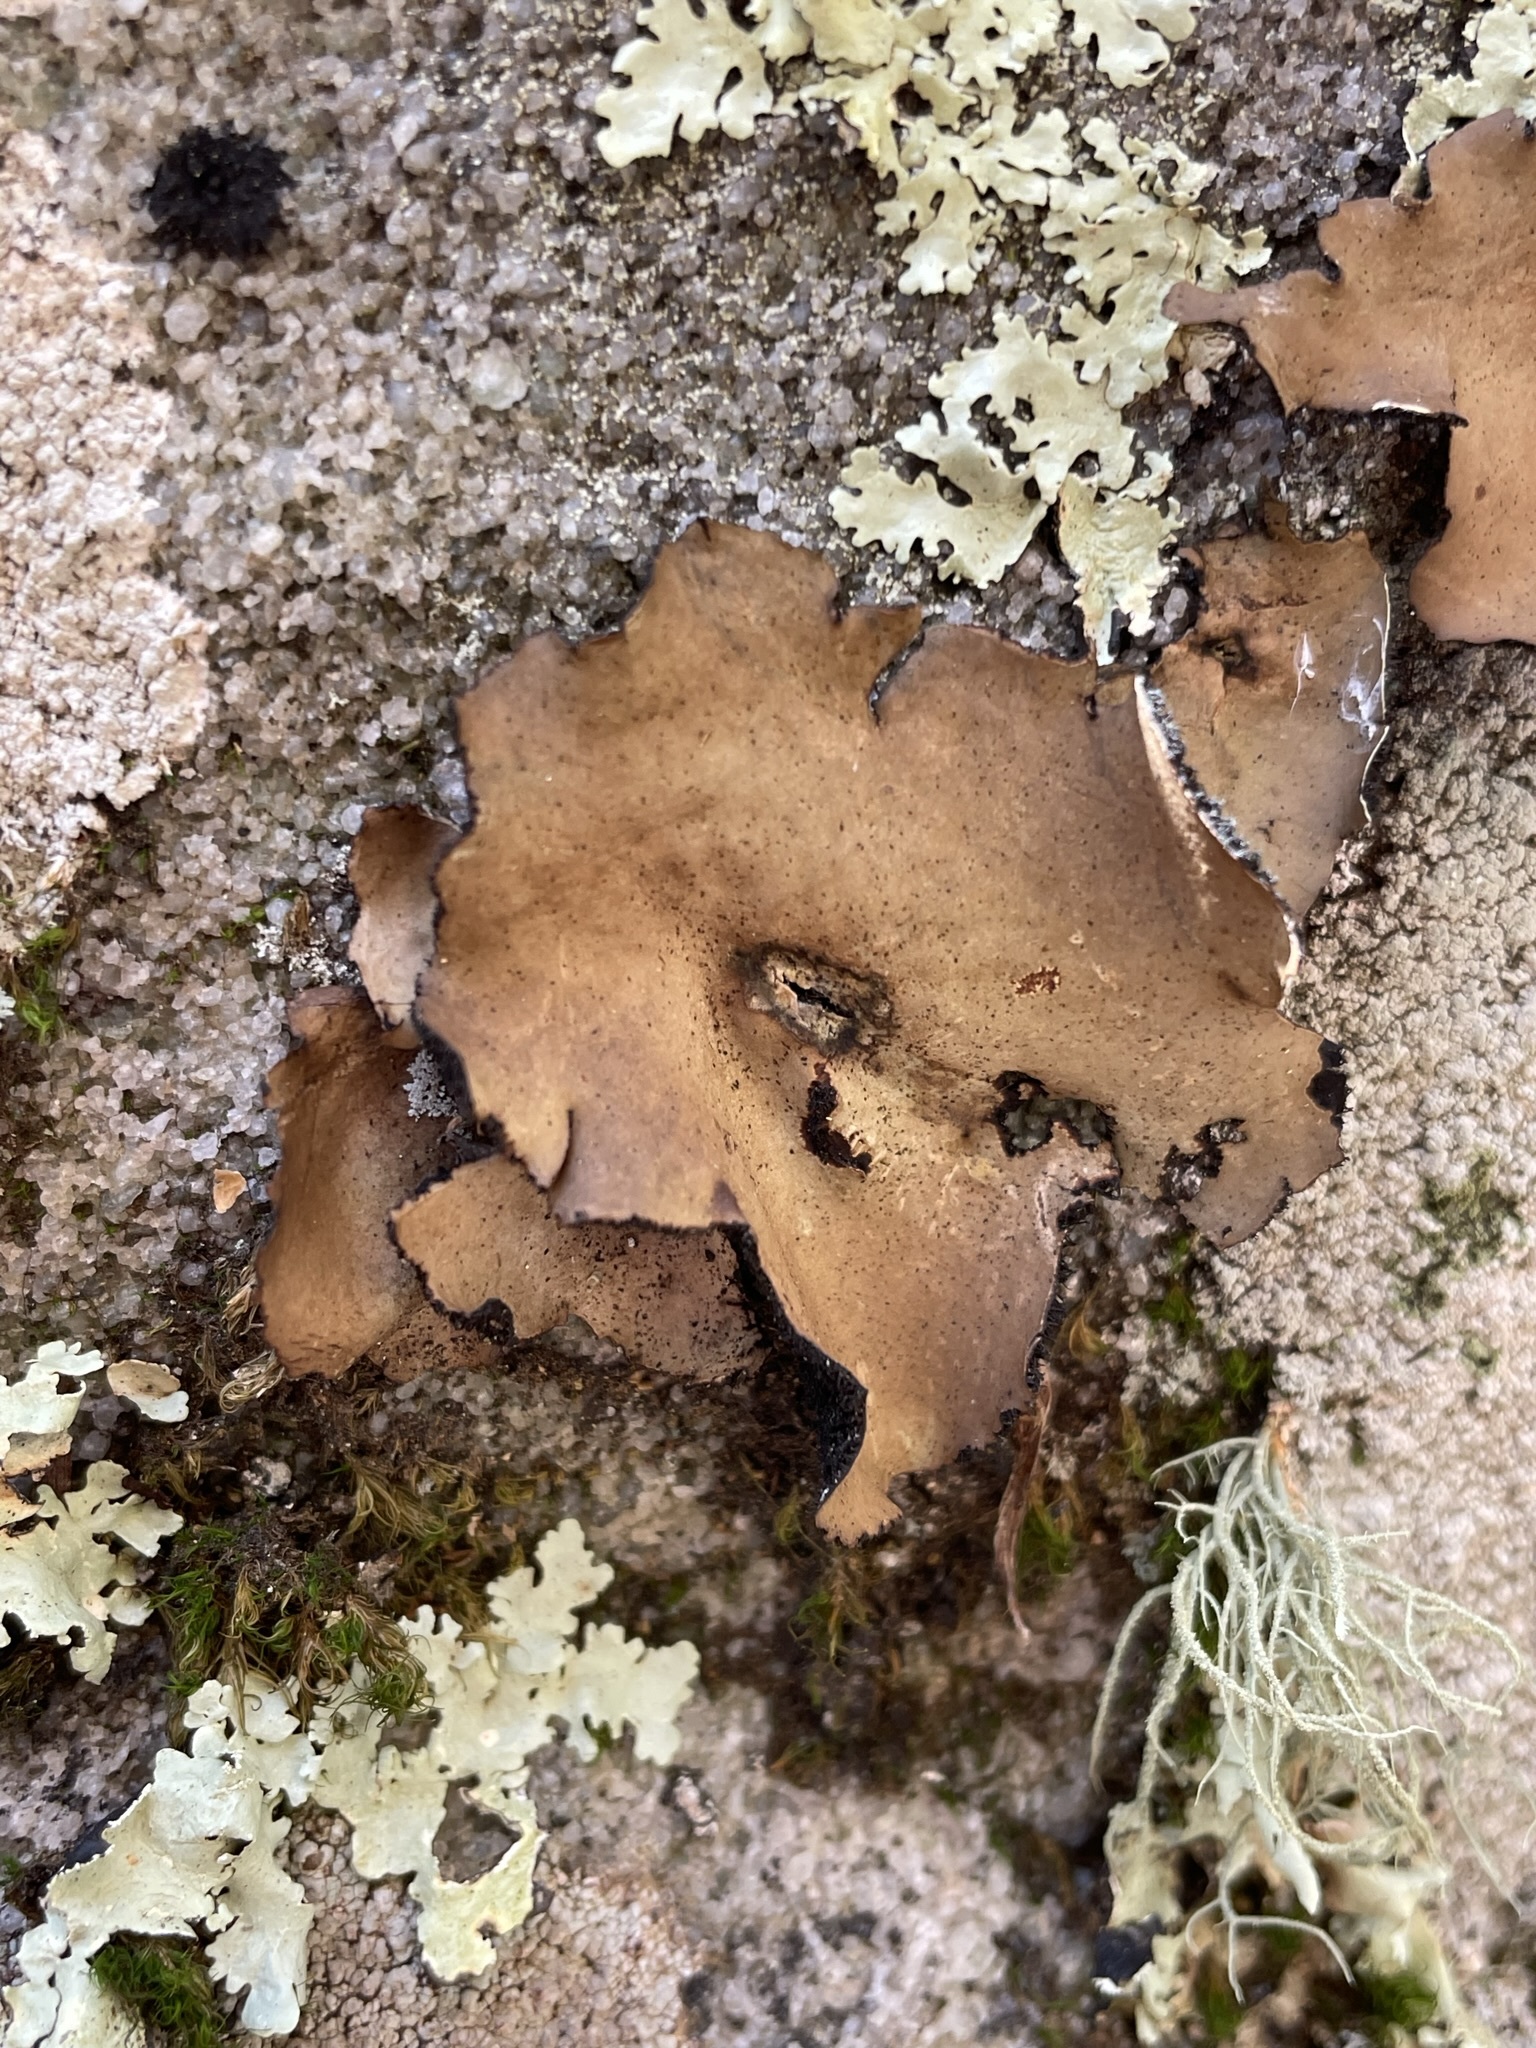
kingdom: Fungi
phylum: Ascomycota
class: Lecanoromycetes
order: Umbilicariales
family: Umbilicariaceae
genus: Umbilicaria
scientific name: Umbilicaria mammulata
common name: Smooth rock tripe
